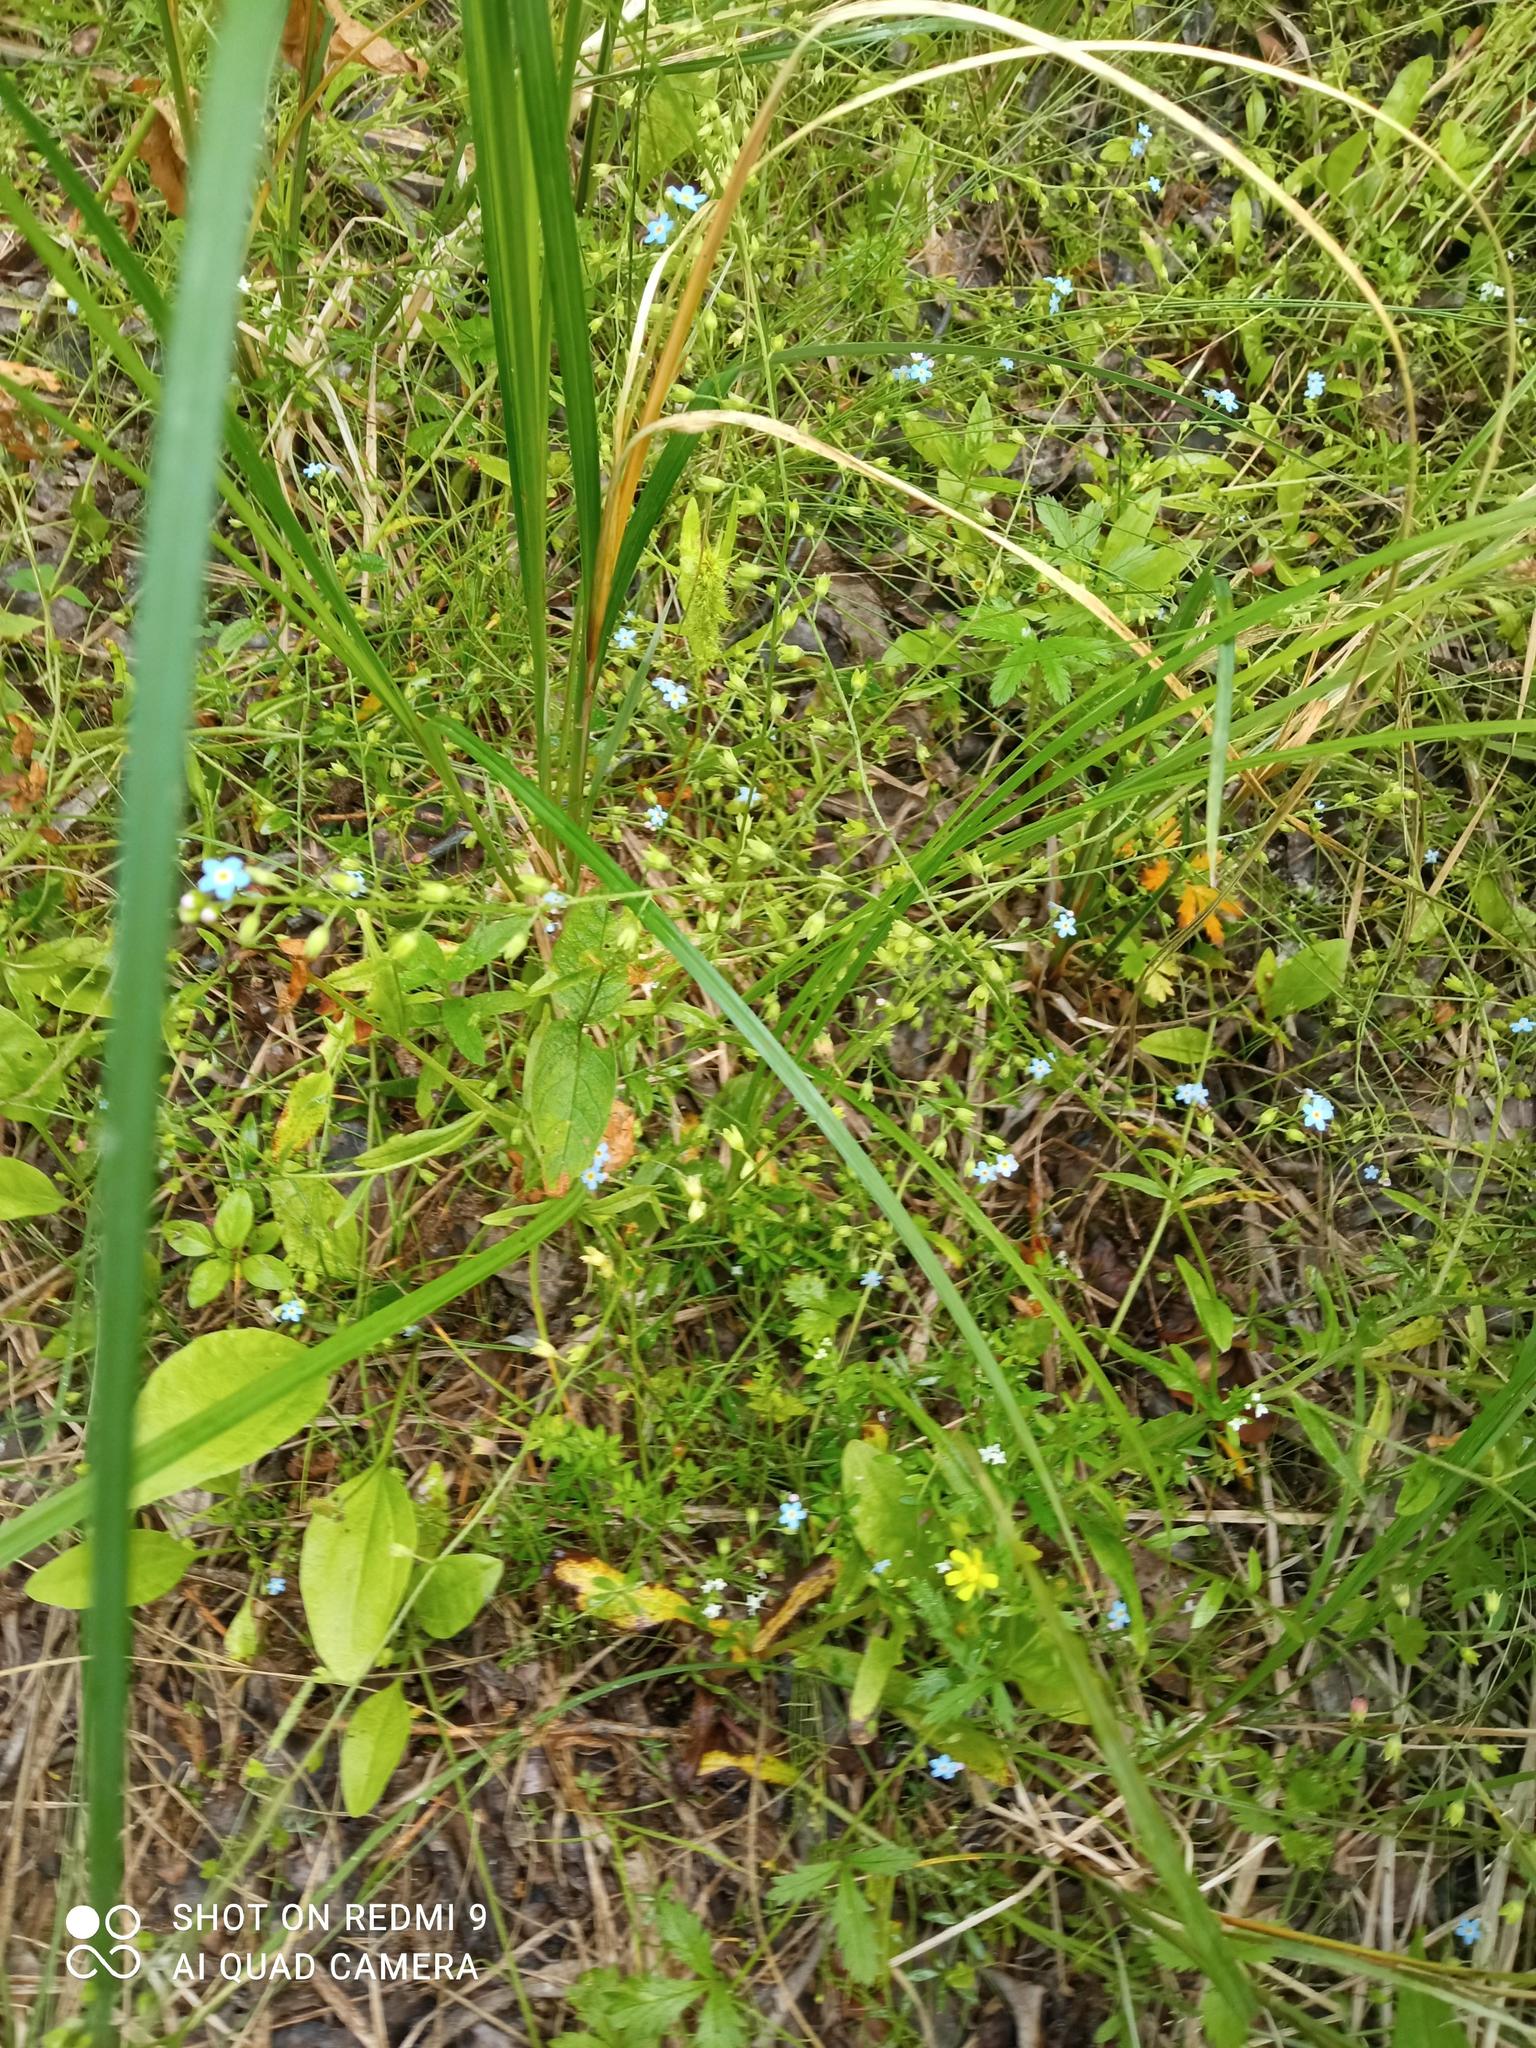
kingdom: Plantae
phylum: Tracheophyta
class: Magnoliopsida
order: Boraginales
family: Boraginaceae
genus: Myosotis
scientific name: Myosotis scorpioides
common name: Water forget-me-not
